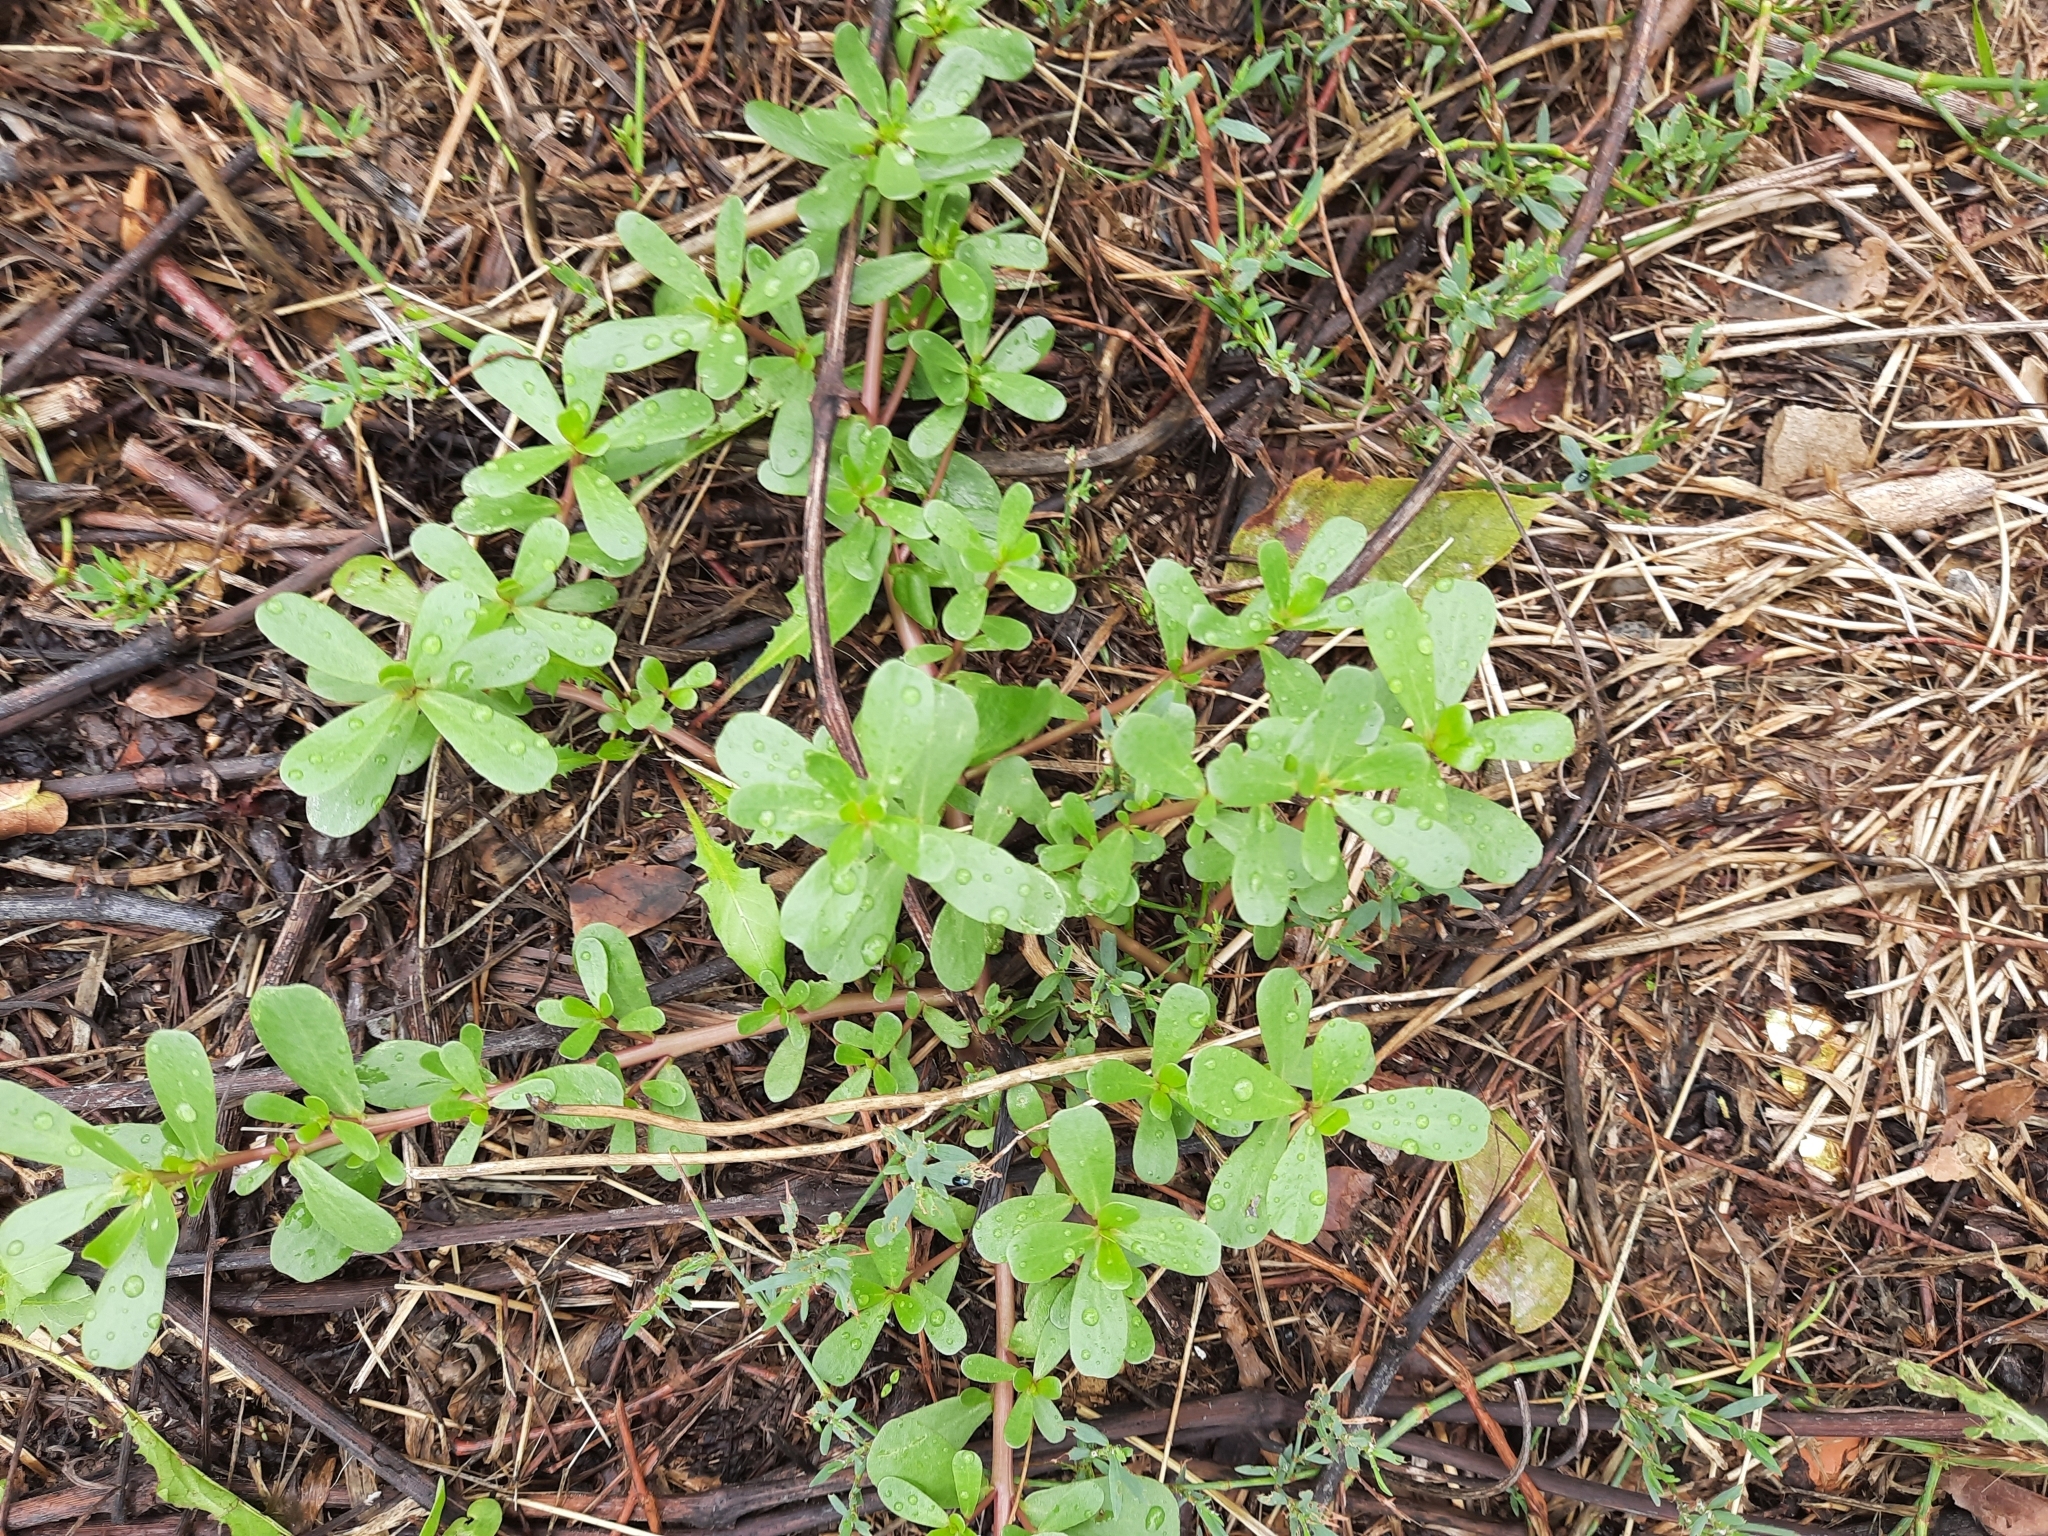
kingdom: Plantae
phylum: Tracheophyta
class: Magnoliopsida
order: Caryophyllales
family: Portulacaceae
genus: Portulaca
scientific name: Portulaca oleracea
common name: Common purslane
